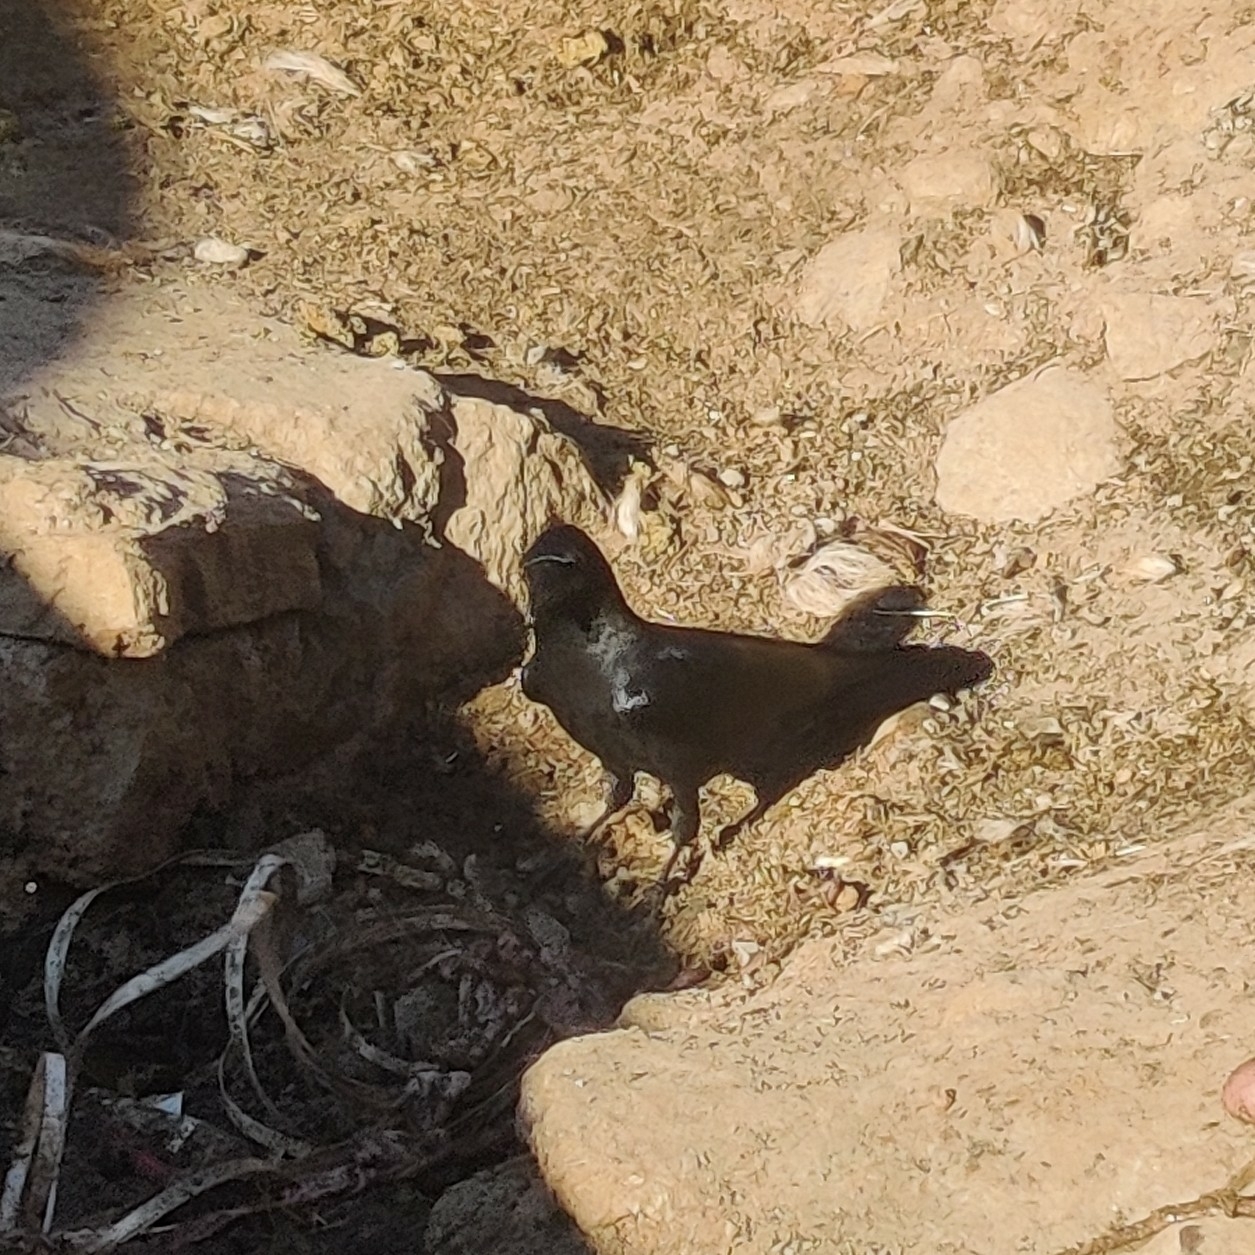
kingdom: Animalia
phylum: Chordata
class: Aves
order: Passeriformes
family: Corvidae
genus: Corvus
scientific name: Corvus macrorhynchos
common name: Large-billed crow
